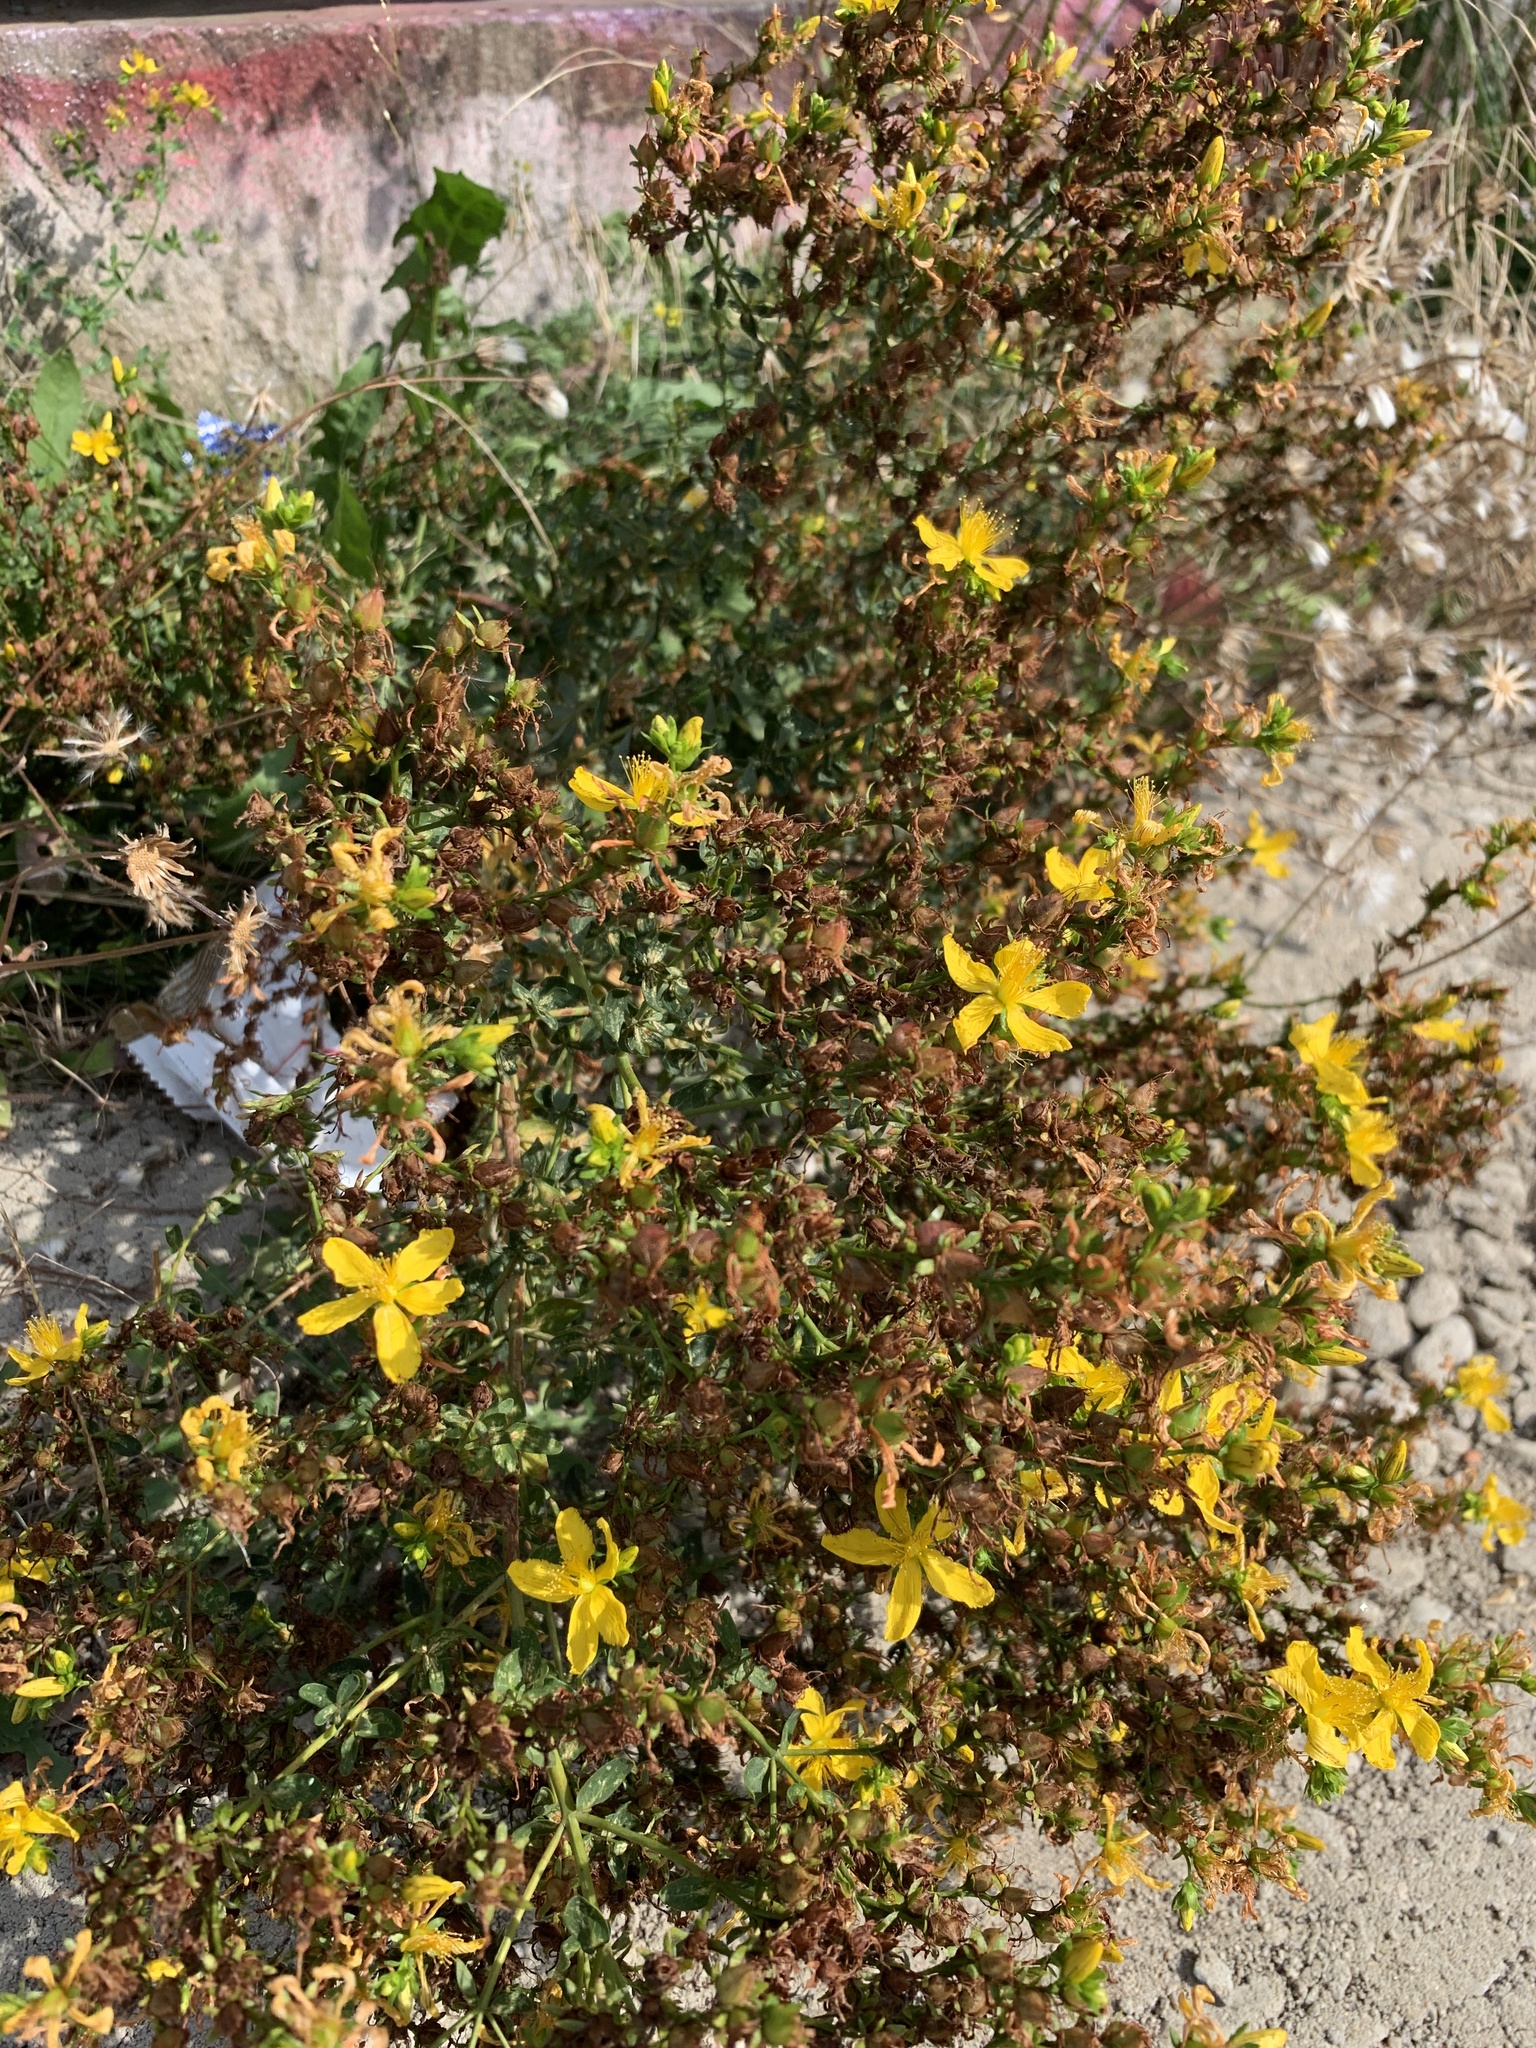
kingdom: Plantae
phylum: Tracheophyta
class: Magnoliopsida
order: Malpighiales
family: Hypericaceae
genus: Hypericum
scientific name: Hypericum perforatum
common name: Common st. johnswort
